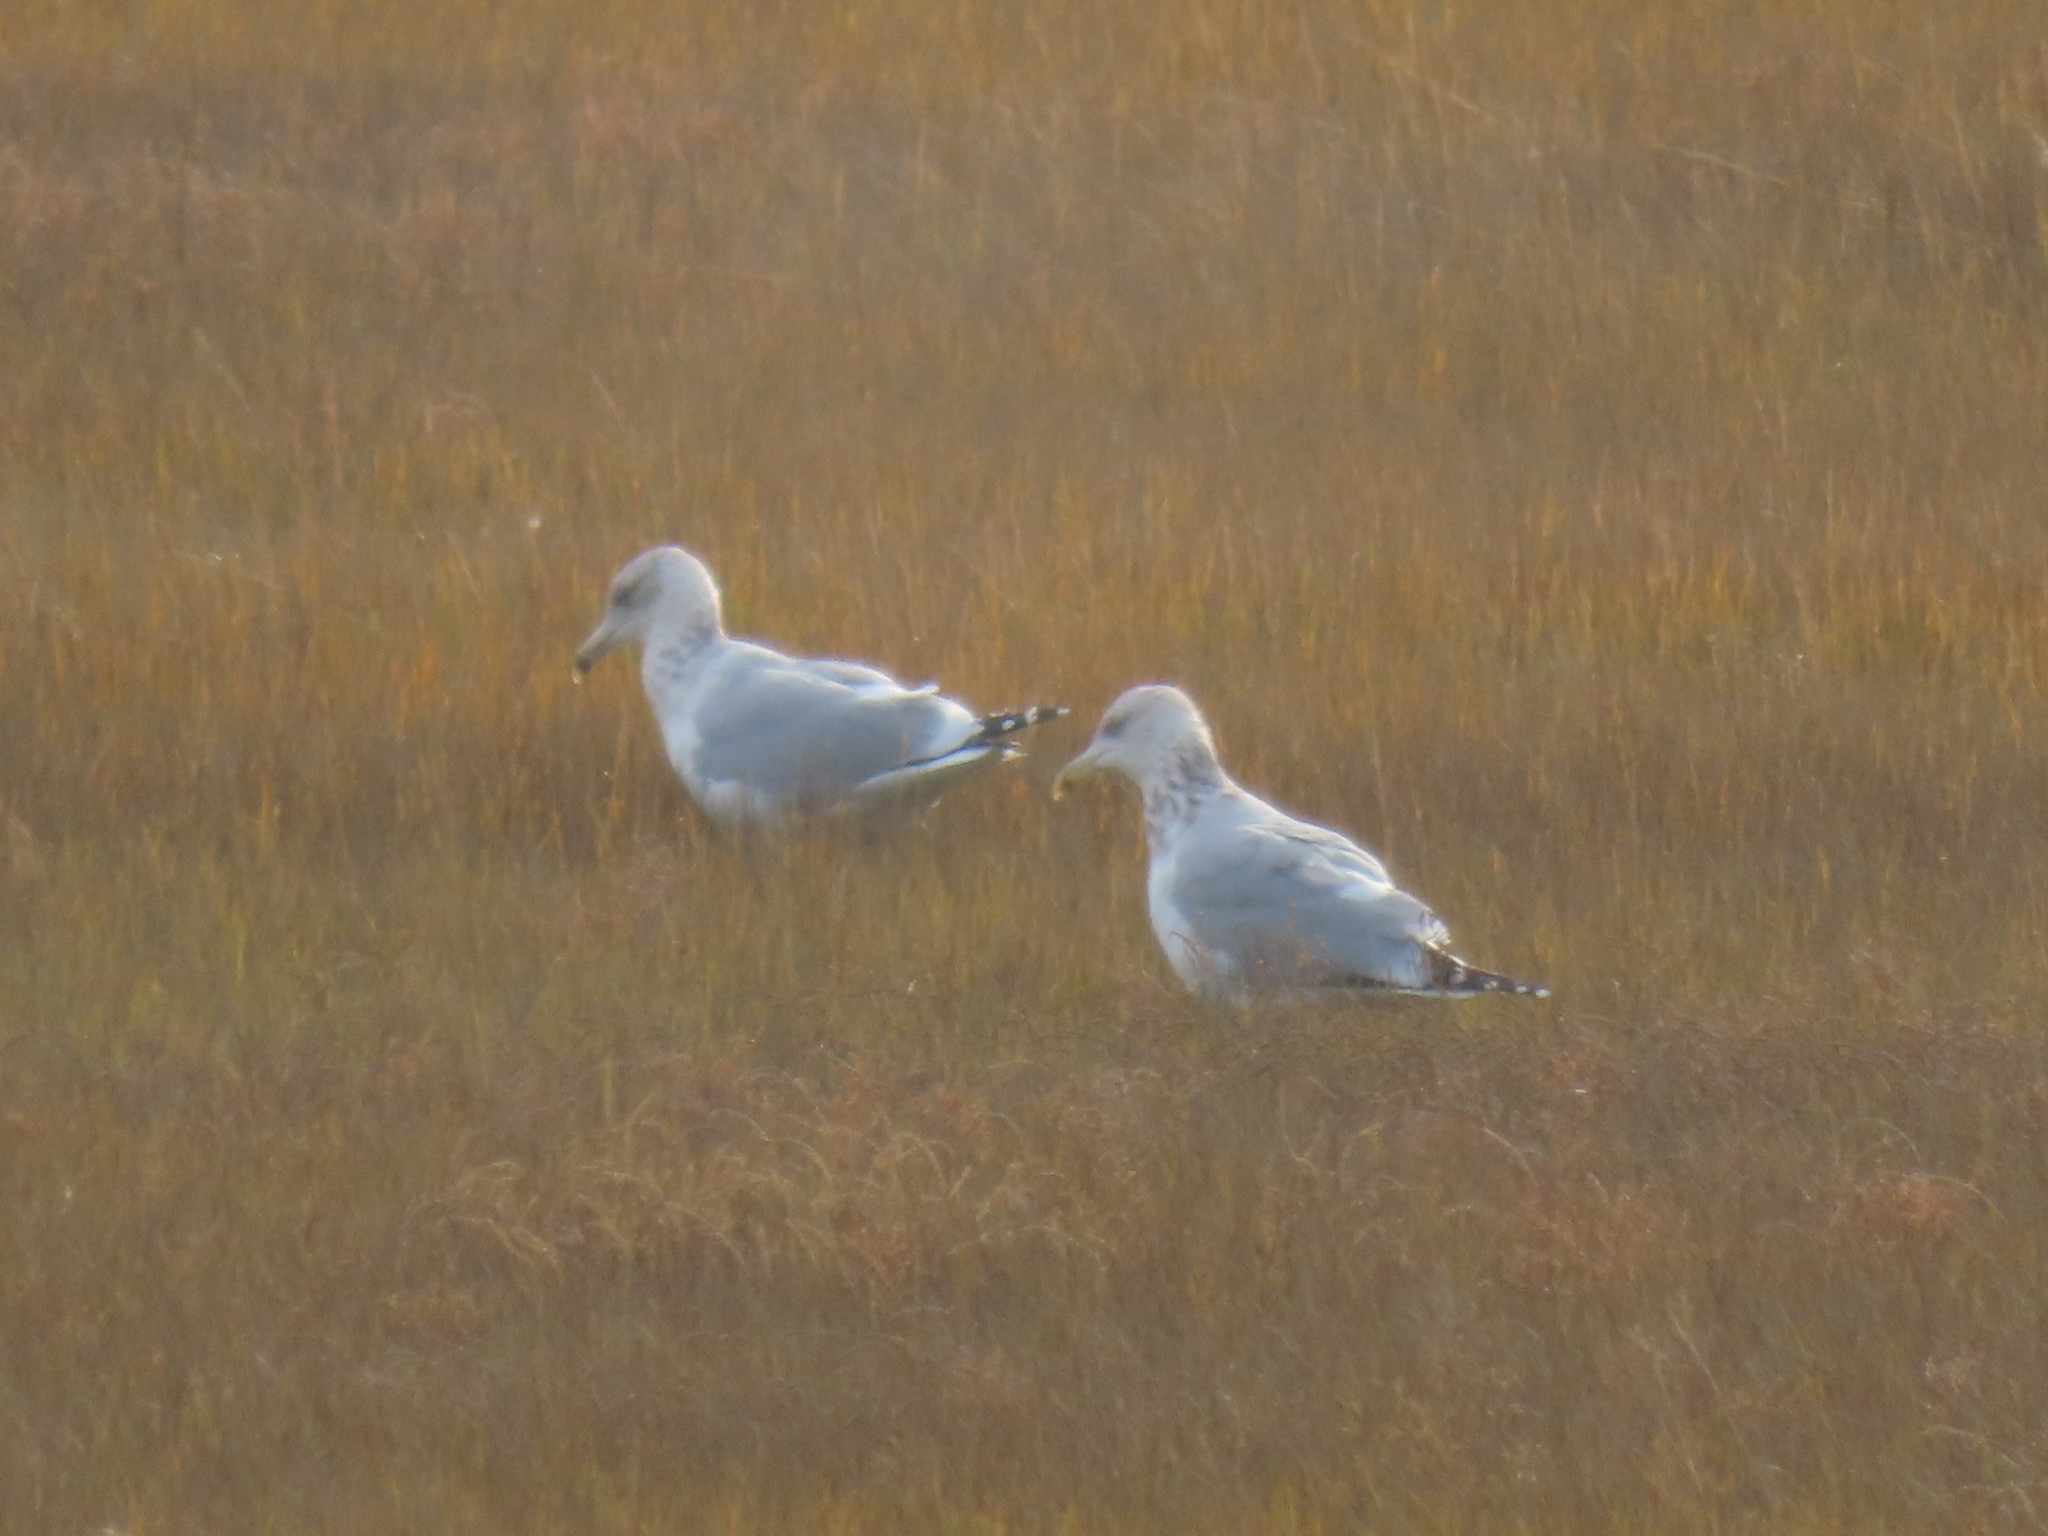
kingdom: Animalia
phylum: Chordata
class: Aves
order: Charadriiformes
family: Laridae
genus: Larus
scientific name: Larus argentatus
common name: Herring gull
